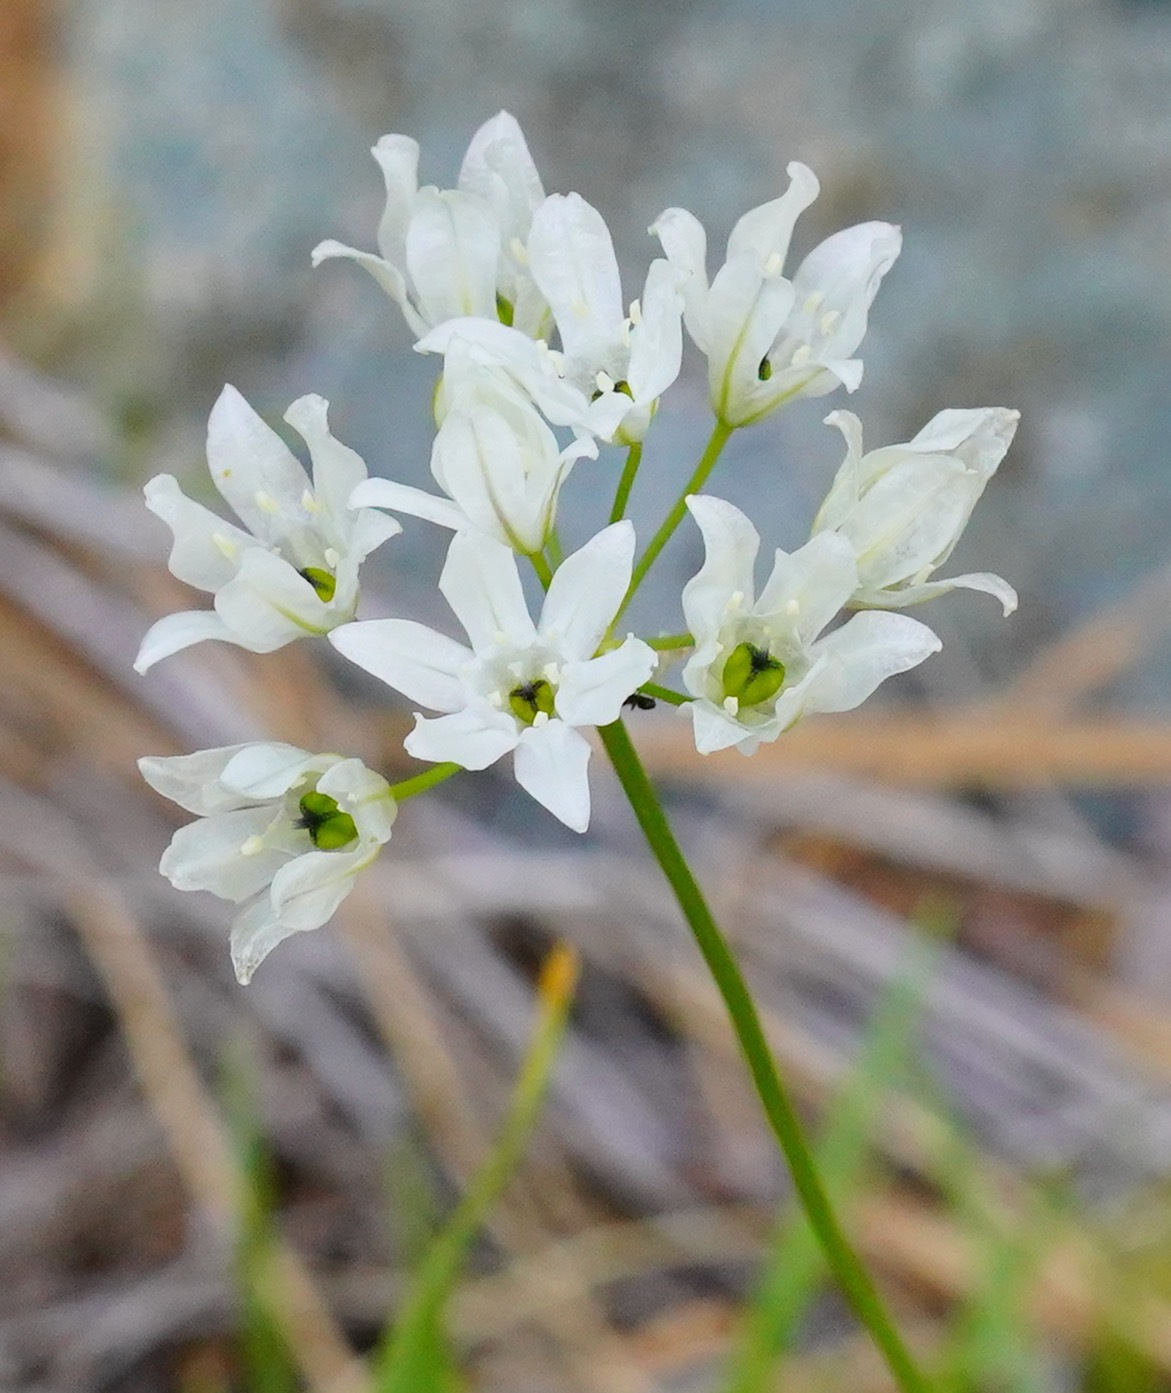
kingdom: Plantae
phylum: Tracheophyta
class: Liliopsida
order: Asparagales
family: Asparagaceae
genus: Triteleia
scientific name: Triteleia hyacinthina
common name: White brodiaea
